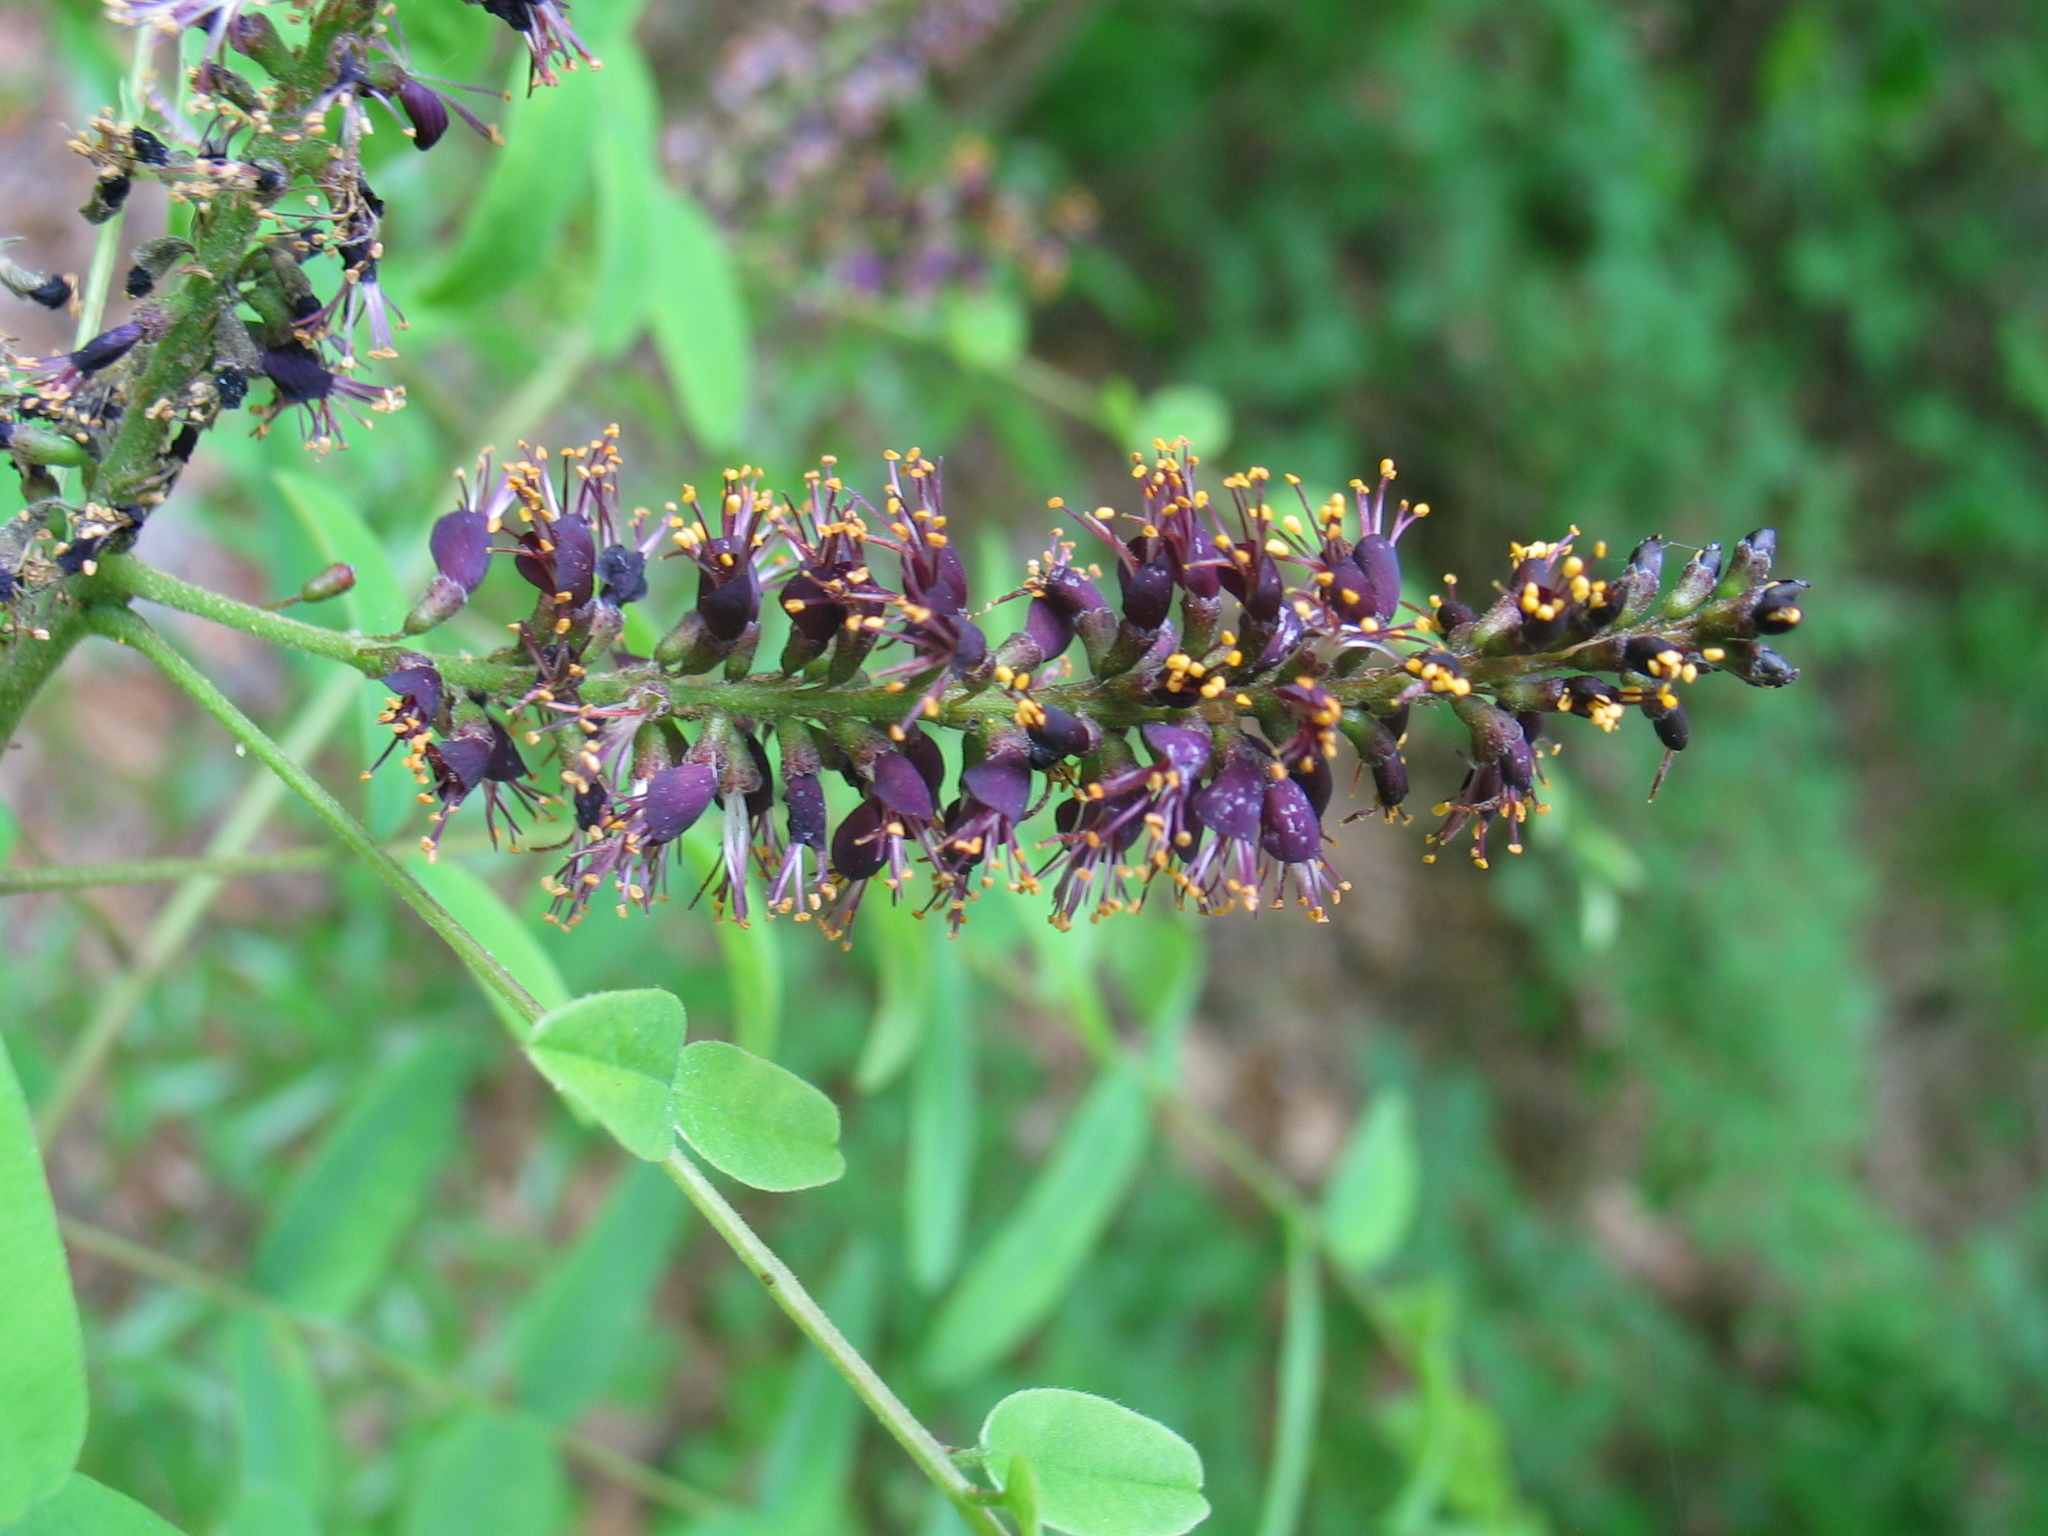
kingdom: Plantae
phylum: Tracheophyta
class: Magnoliopsida
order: Fabales
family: Fabaceae
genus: Amorpha
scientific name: Amorpha fruticosa
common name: False indigo
